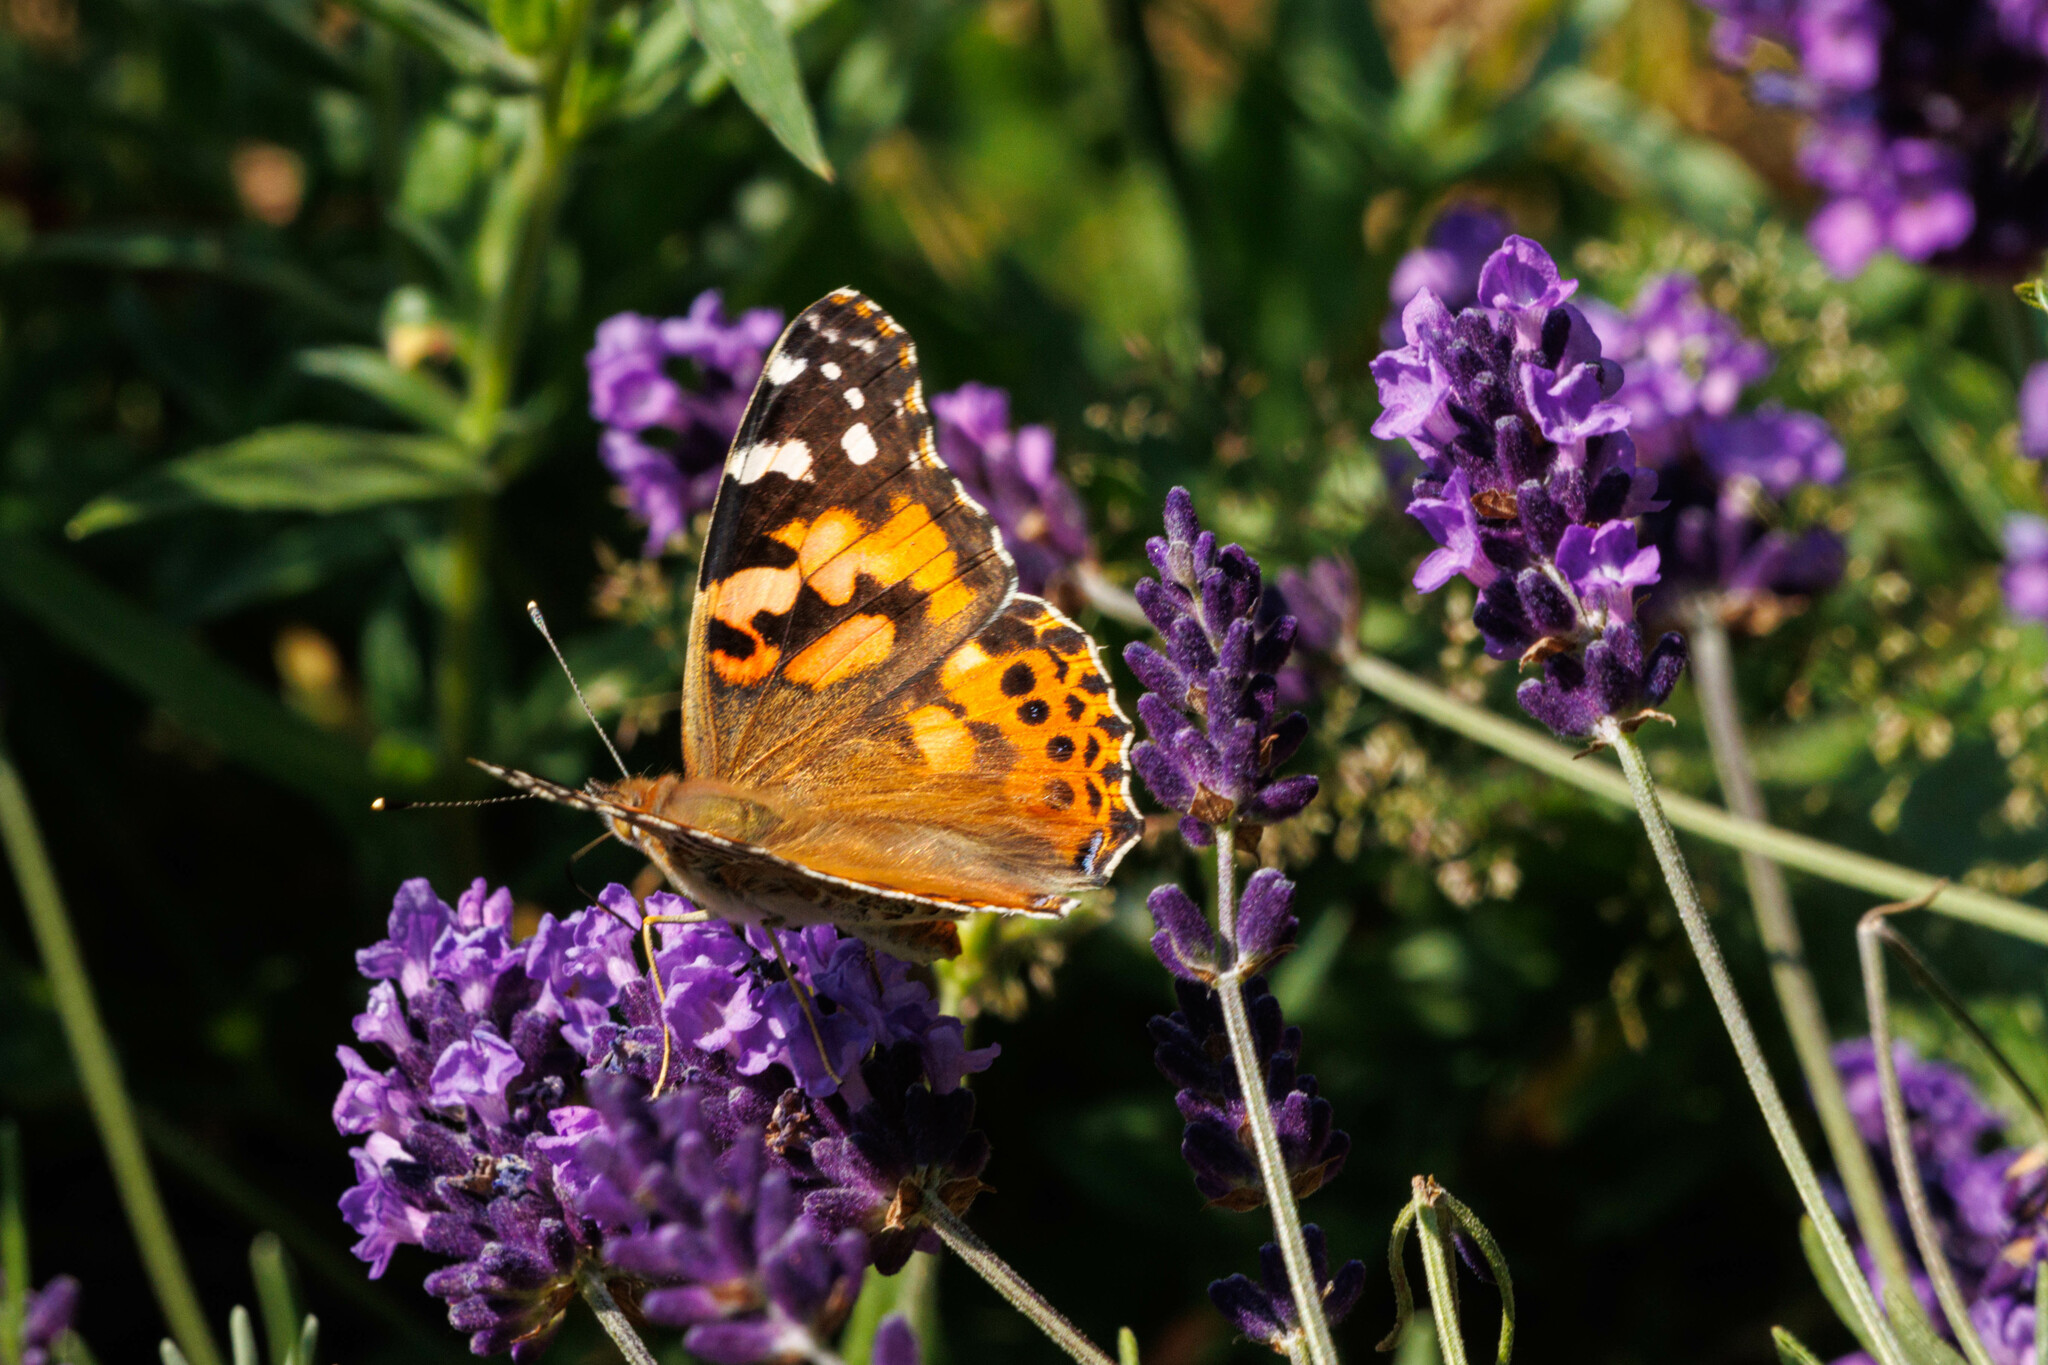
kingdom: Animalia
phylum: Arthropoda
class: Insecta
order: Lepidoptera
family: Nymphalidae
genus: Vanessa
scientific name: Vanessa cardui
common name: Painted lady
